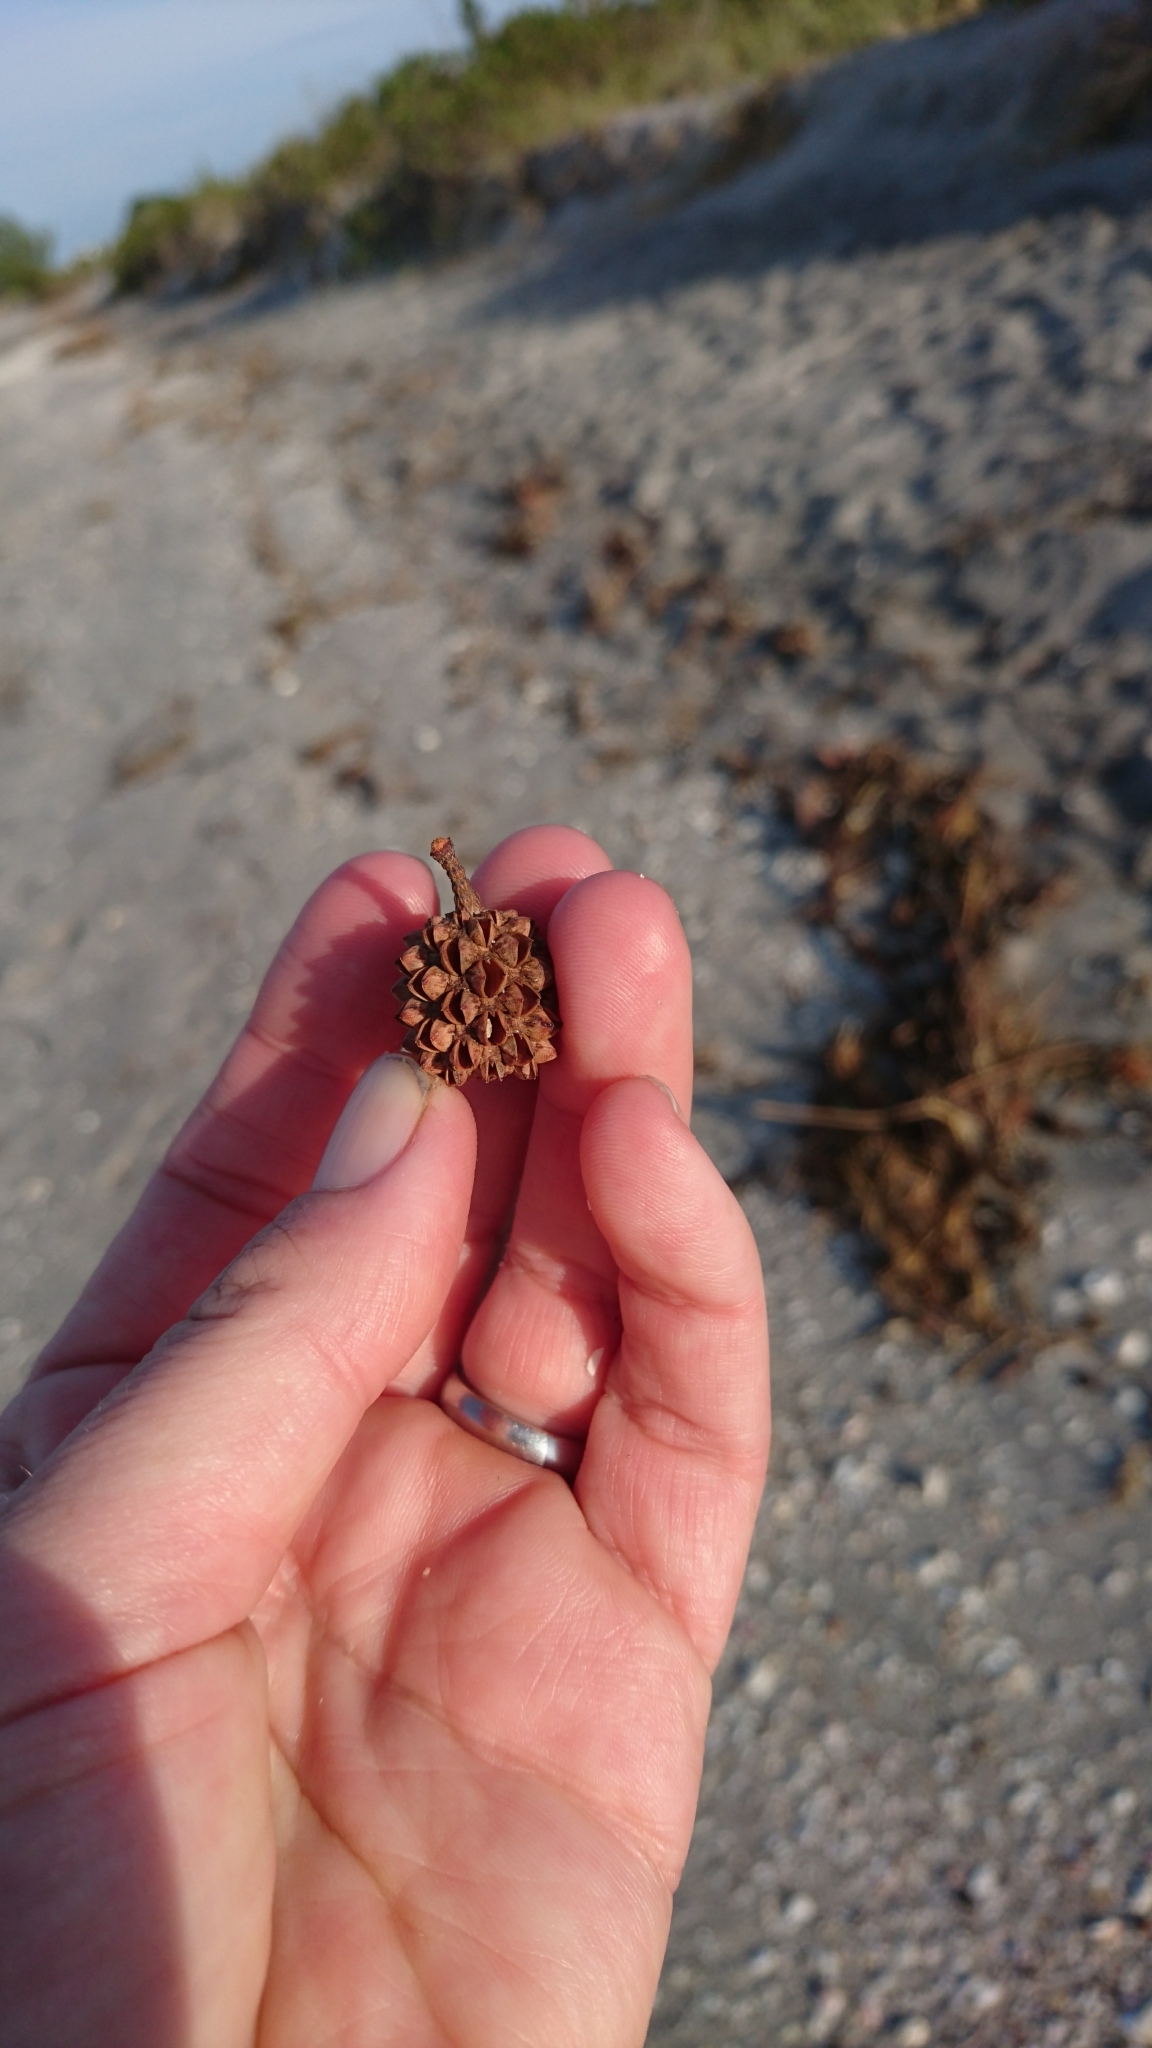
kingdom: Plantae
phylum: Tracheophyta
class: Magnoliopsida
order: Fagales
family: Casuarinaceae
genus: Casuarina
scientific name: Casuarina equisetifolia
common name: Beach sheoak
